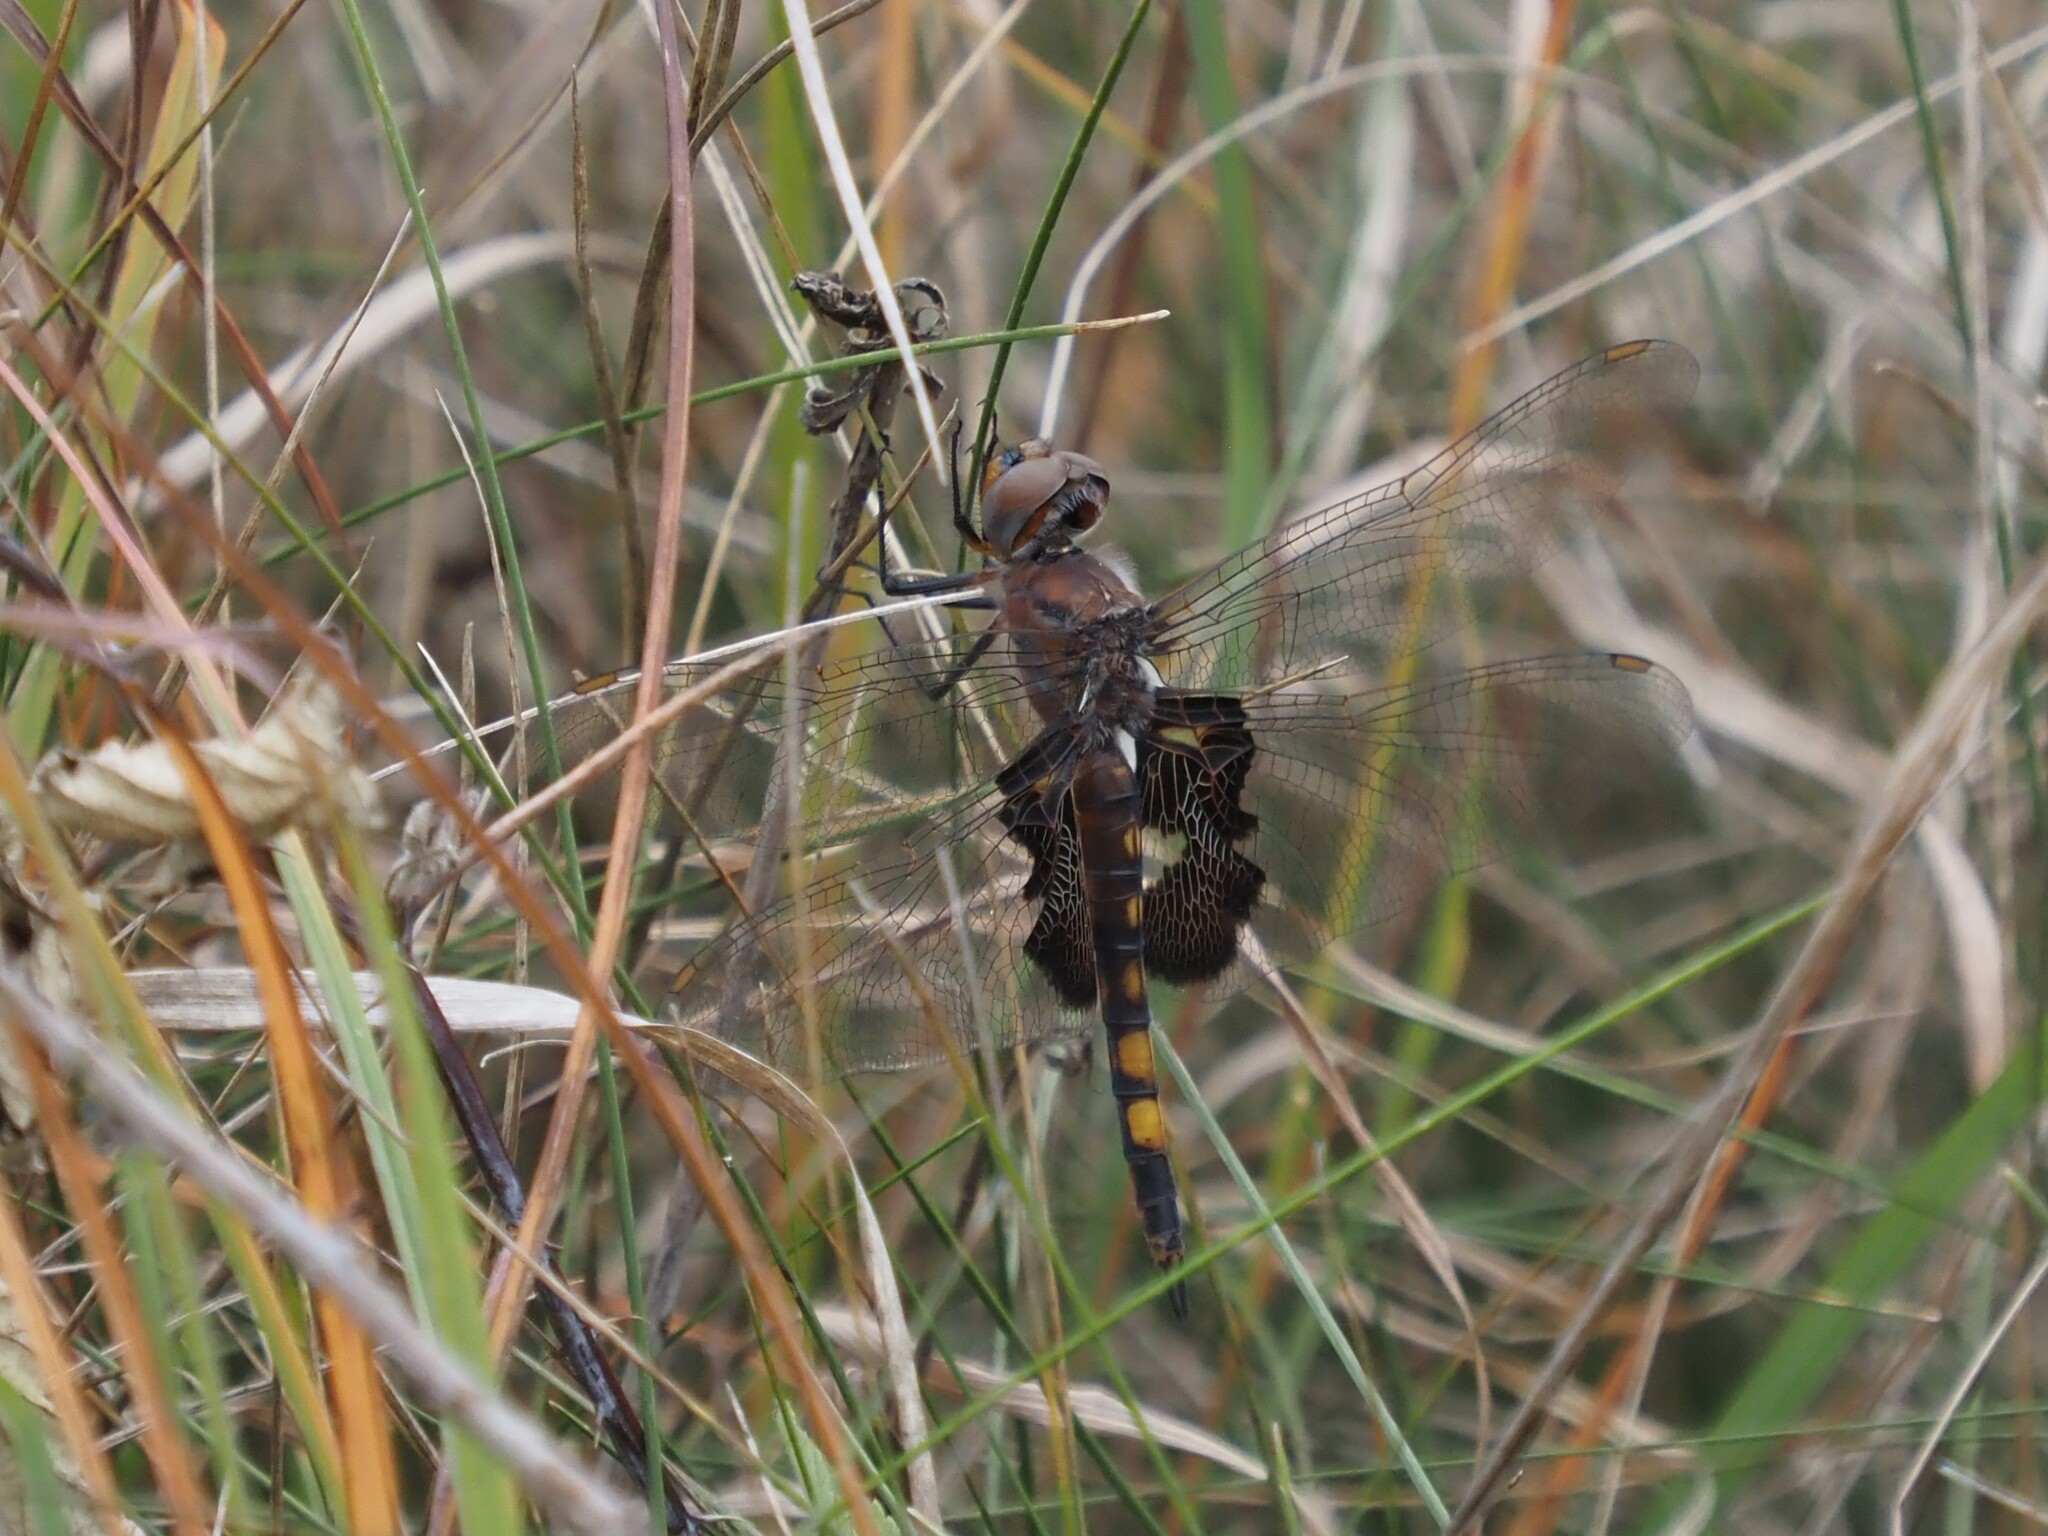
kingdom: Animalia
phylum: Arthropoda
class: Insecta
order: Odonata
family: Libellulidae
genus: Tramea
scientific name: Tramea lacerata
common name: Black saddlebags
